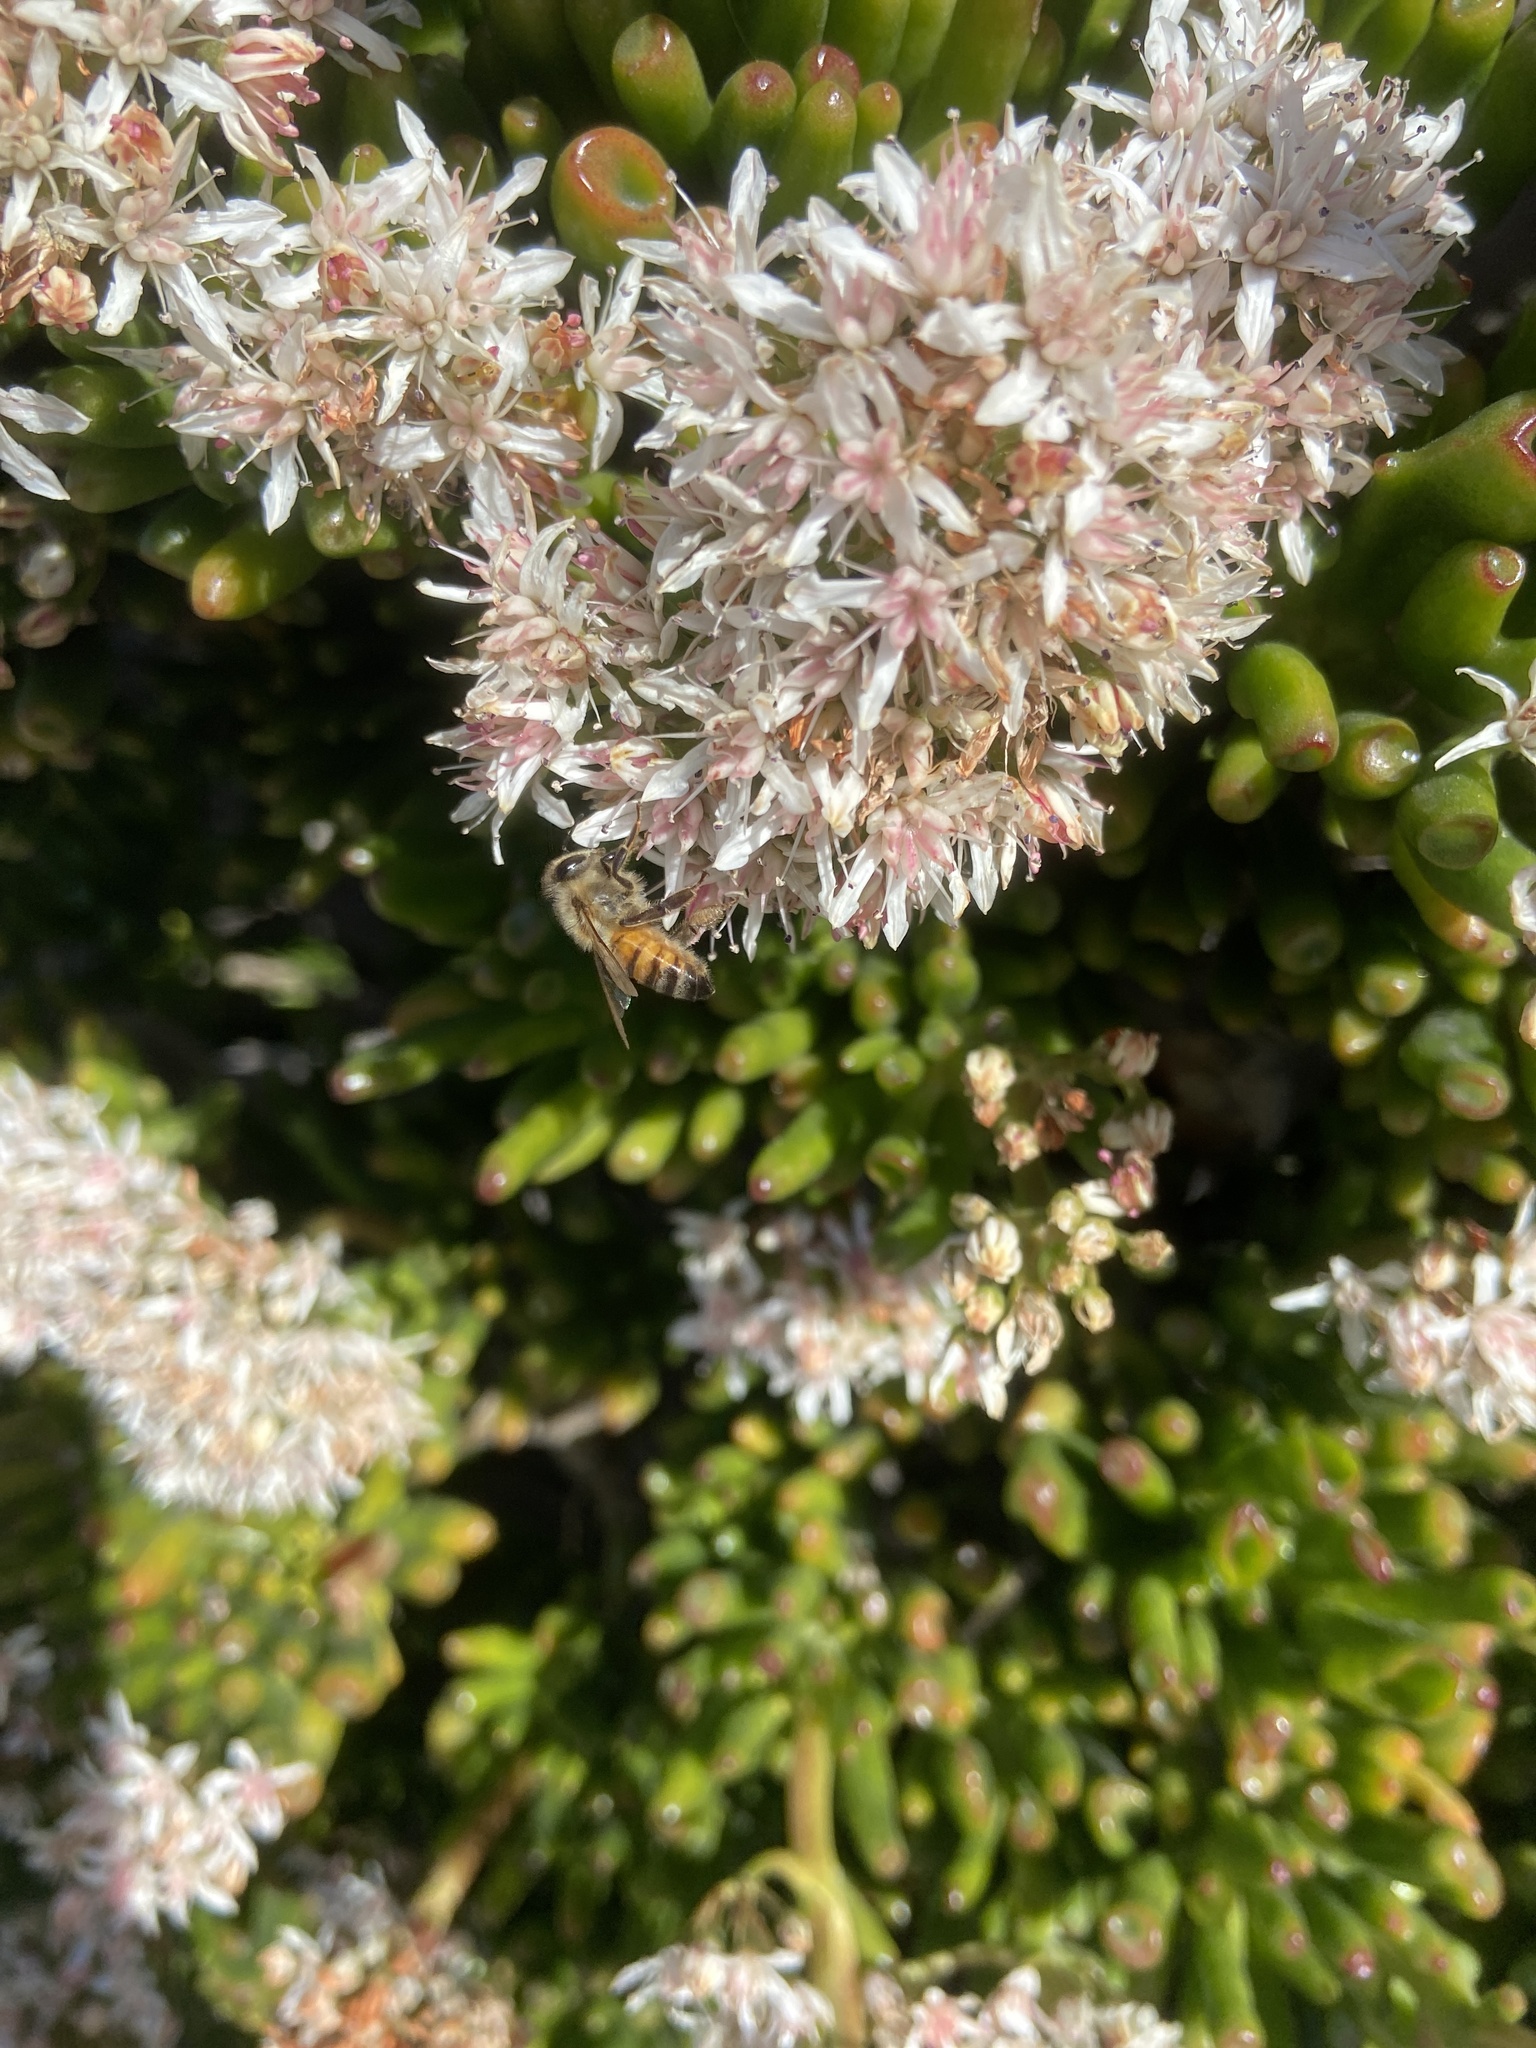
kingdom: Animalia
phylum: Arthropoda
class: Insecta
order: Hymenoptera
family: Apidae
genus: Apis
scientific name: Apis mellifera
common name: Honey bee
